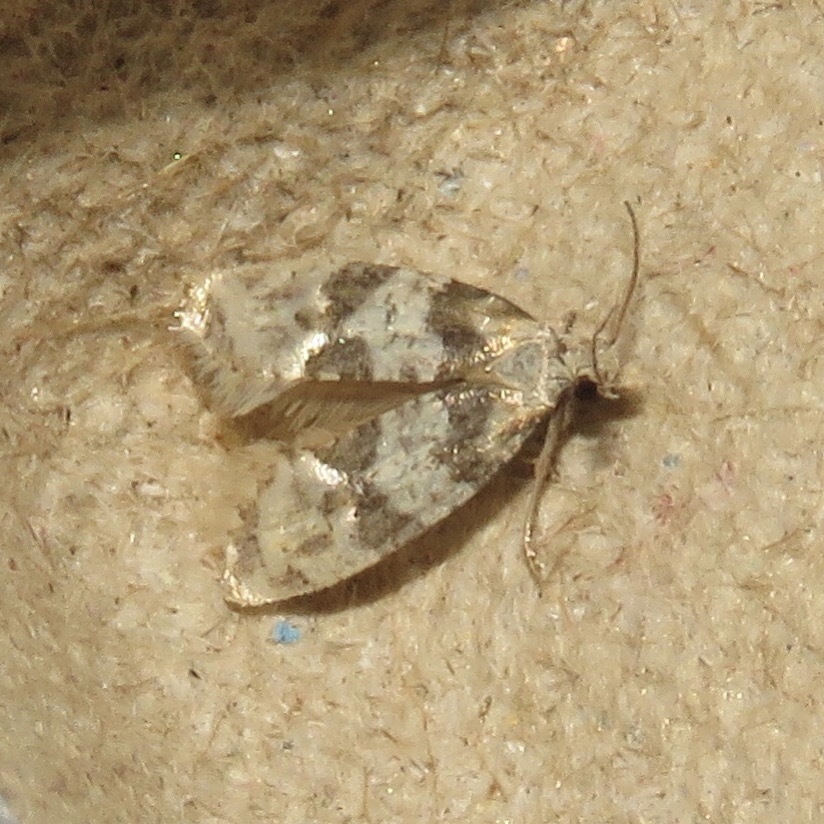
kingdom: Animalia
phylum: Arthropoda
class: Insecta
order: Lepidoptera
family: Tortricidae
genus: Aethes
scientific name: Aethes argentilimitana
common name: Silver-bordered aethes
